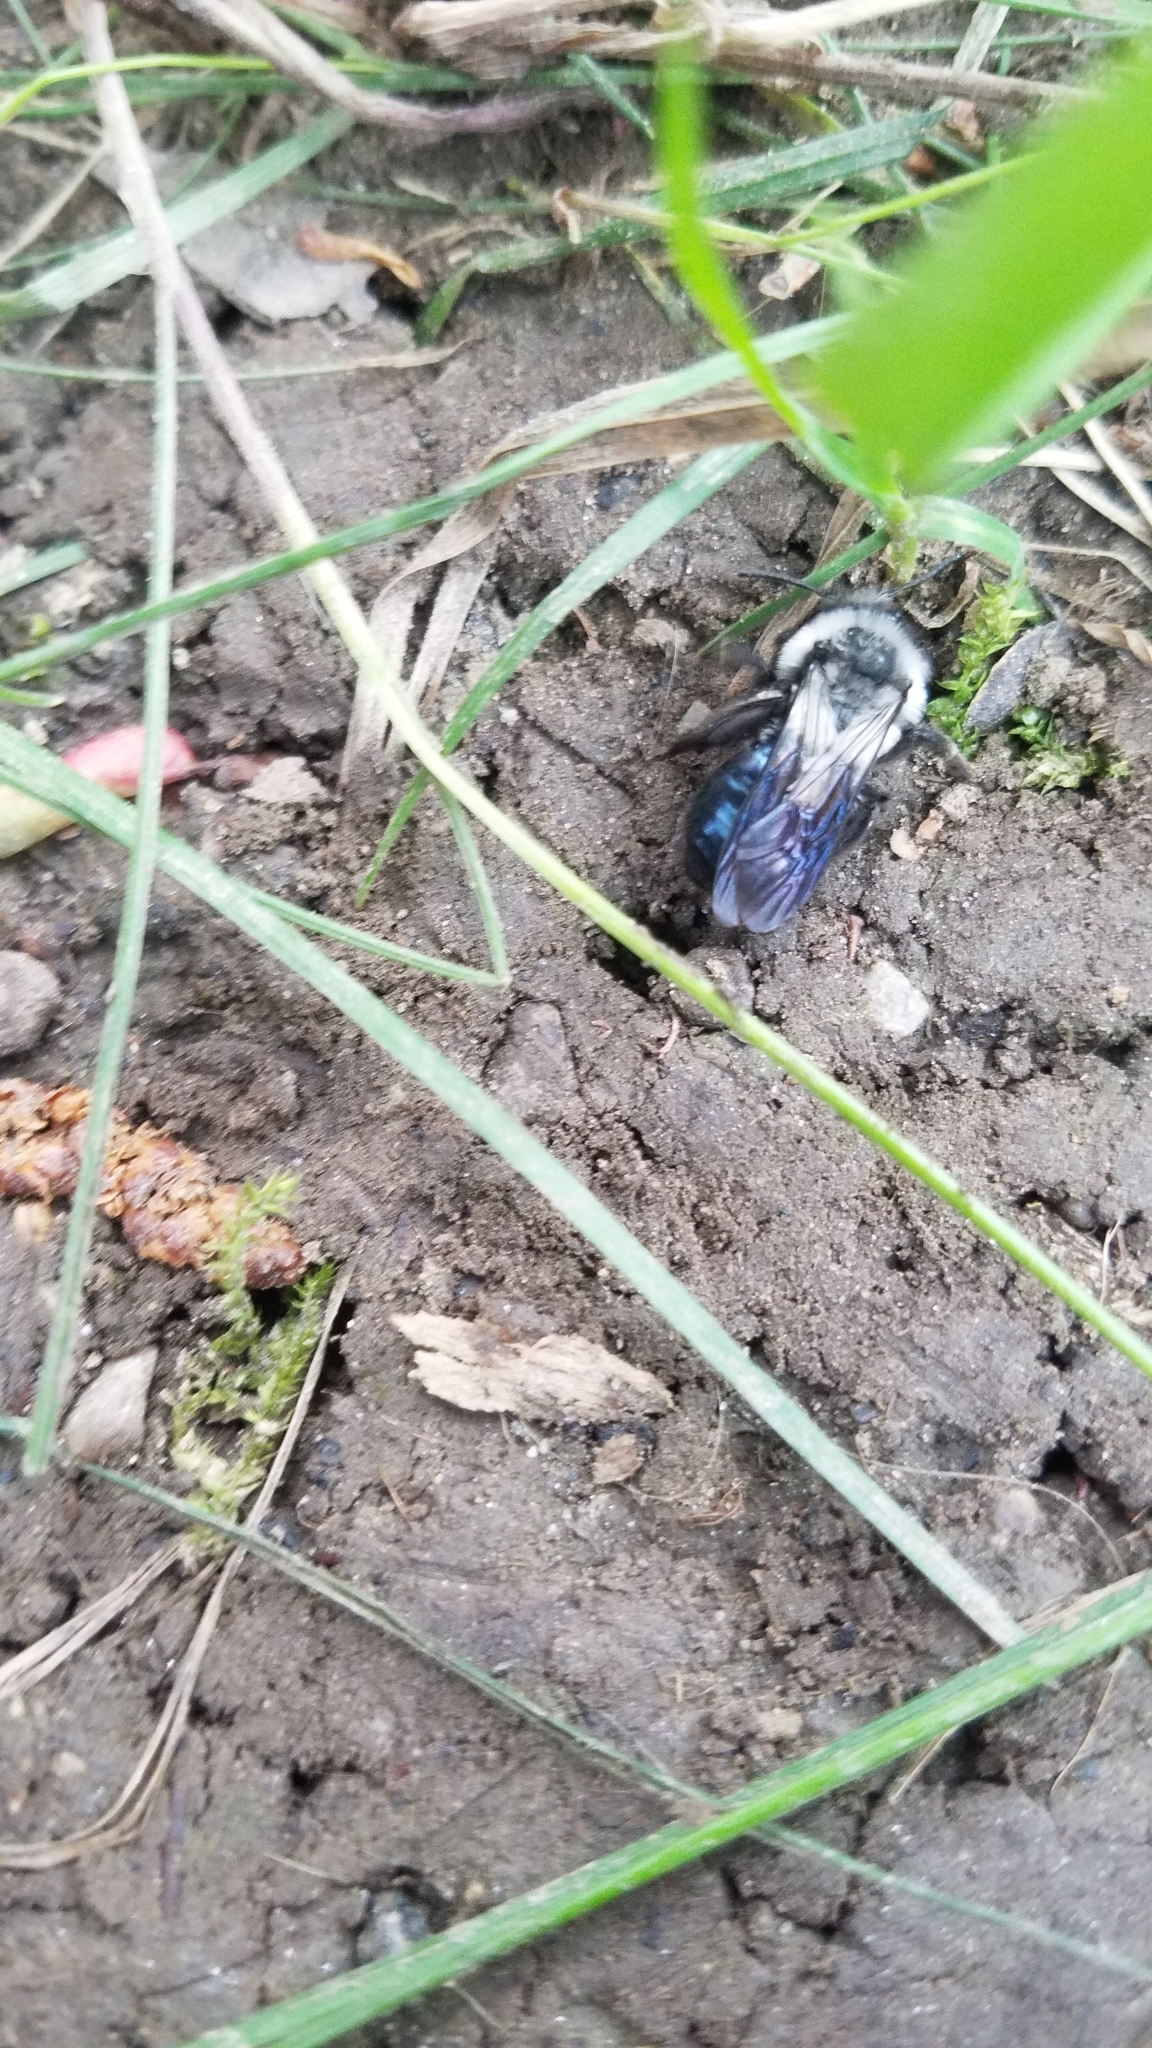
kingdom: Animalia
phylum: Arthropoda
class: Insecta
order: Hymenoptera
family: Andrenidae
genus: Andrena
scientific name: Andrena cineraria
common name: Ashy mining bee
